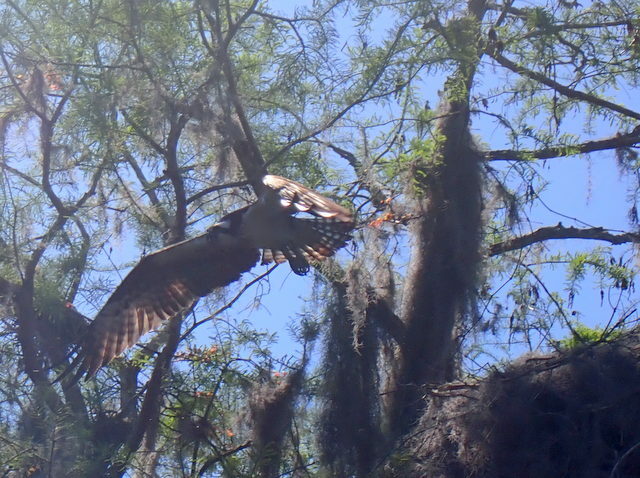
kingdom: Animalia
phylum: Chordata
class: Aves
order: Accipitriformes
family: Pandionidae
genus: Pandion
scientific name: Pandion haliaetus
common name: Osprey
